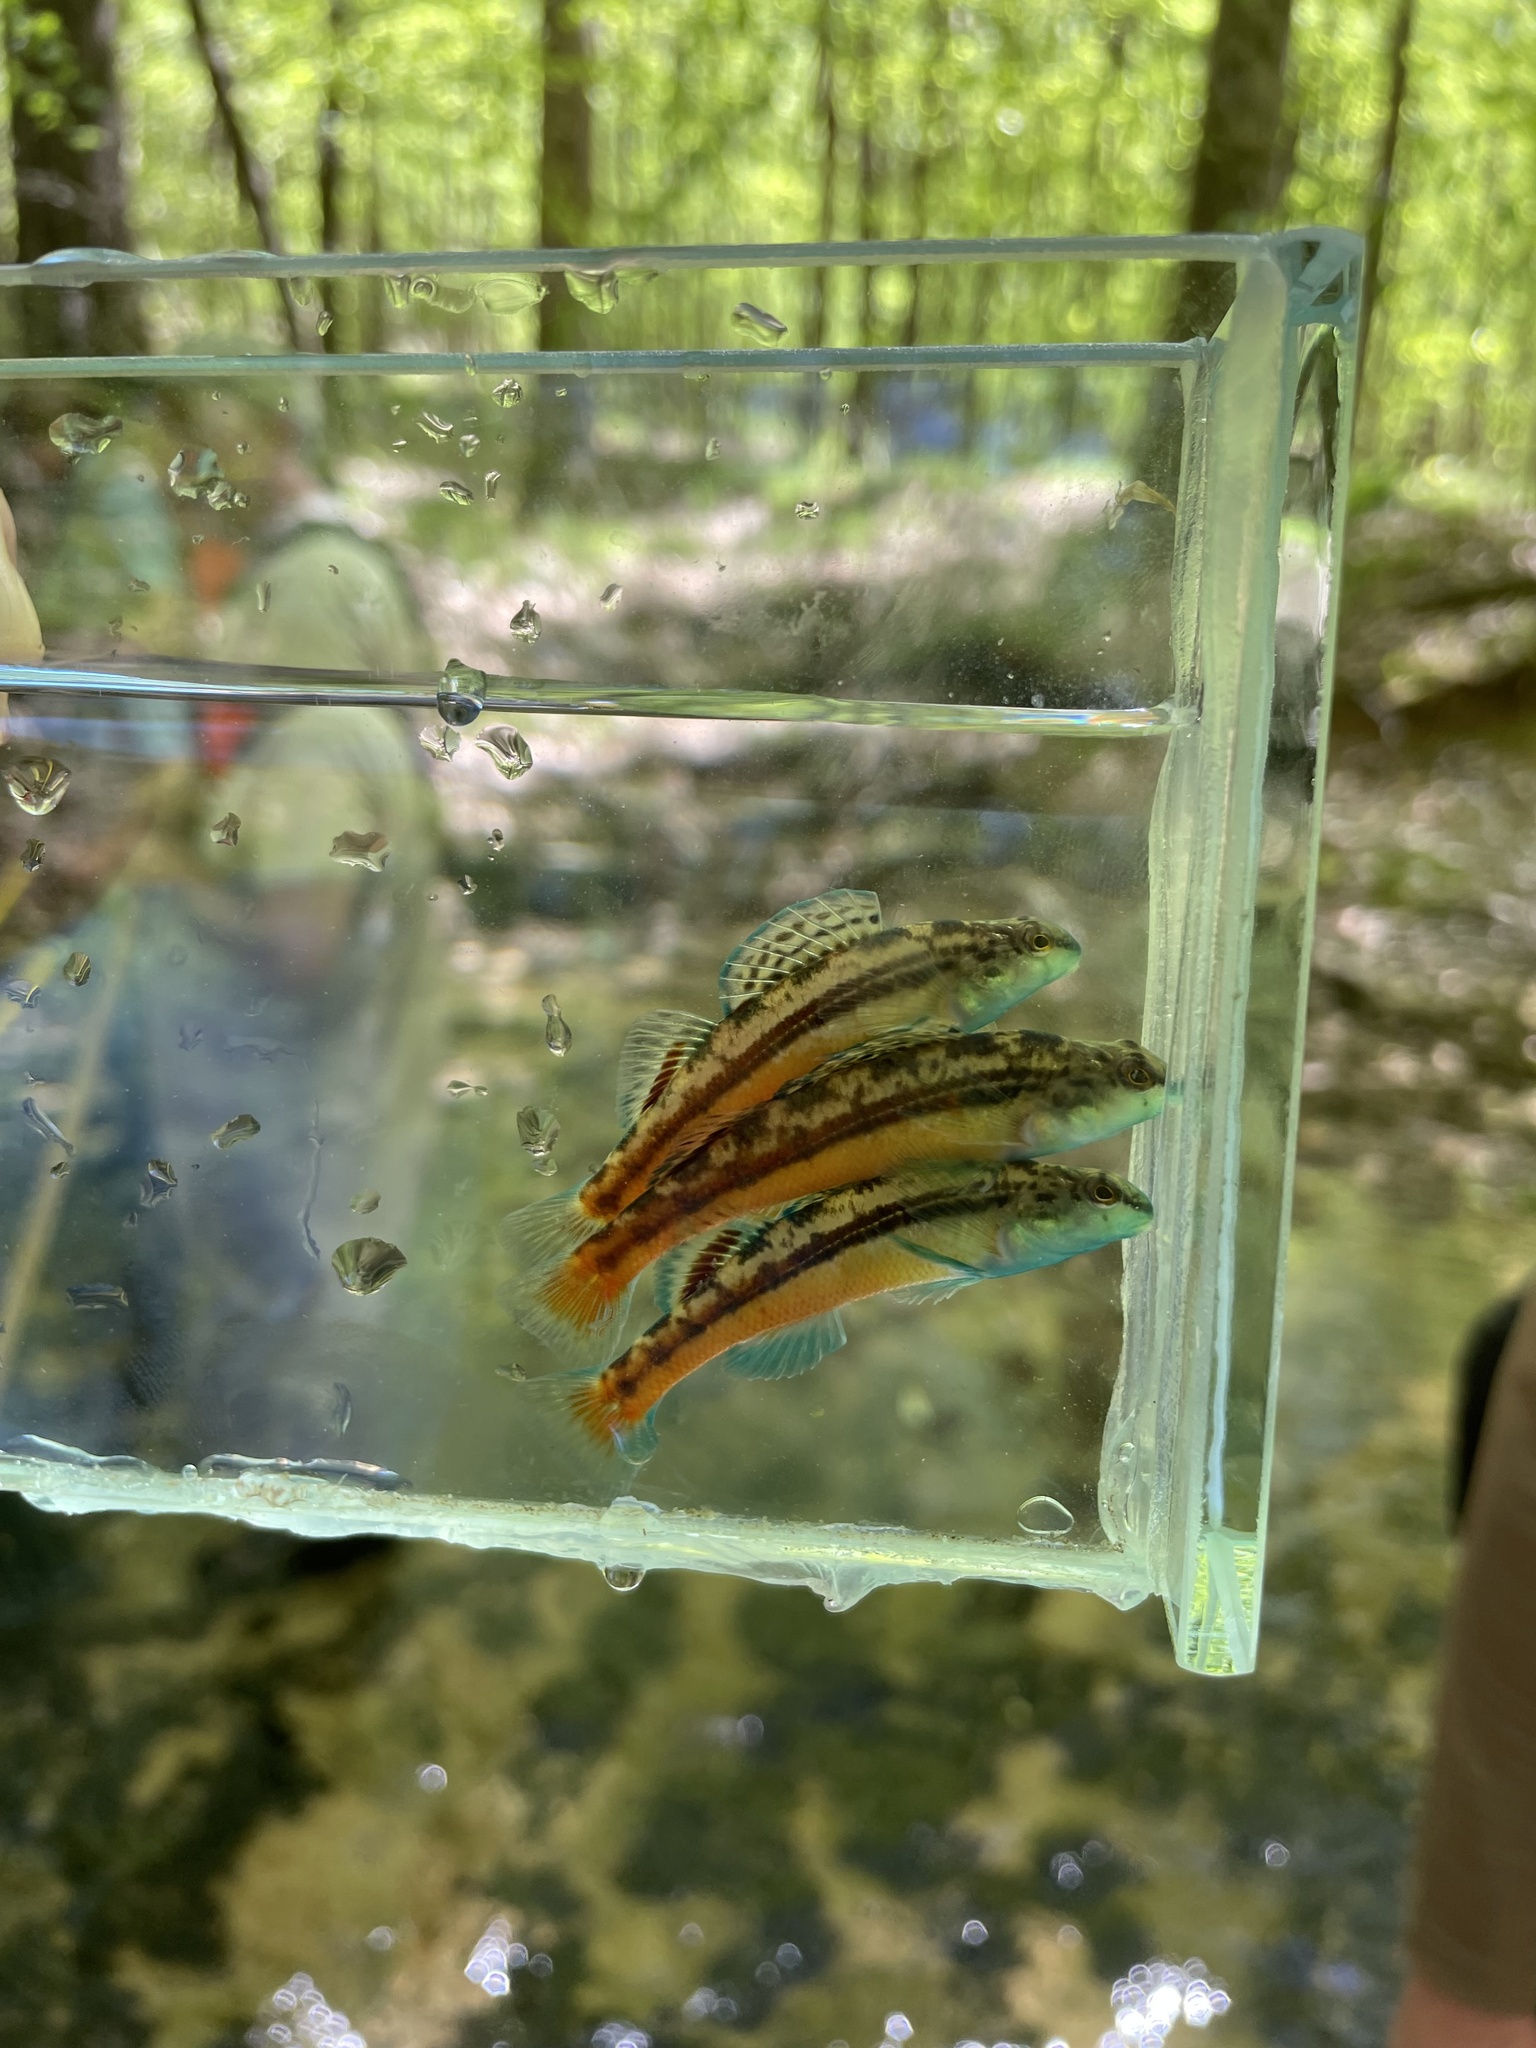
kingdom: Animalia
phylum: Chordata
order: Perciformes
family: Percidae
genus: Etheostoma
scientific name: Etheostoma cyanoprosopum
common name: Blueface darter
